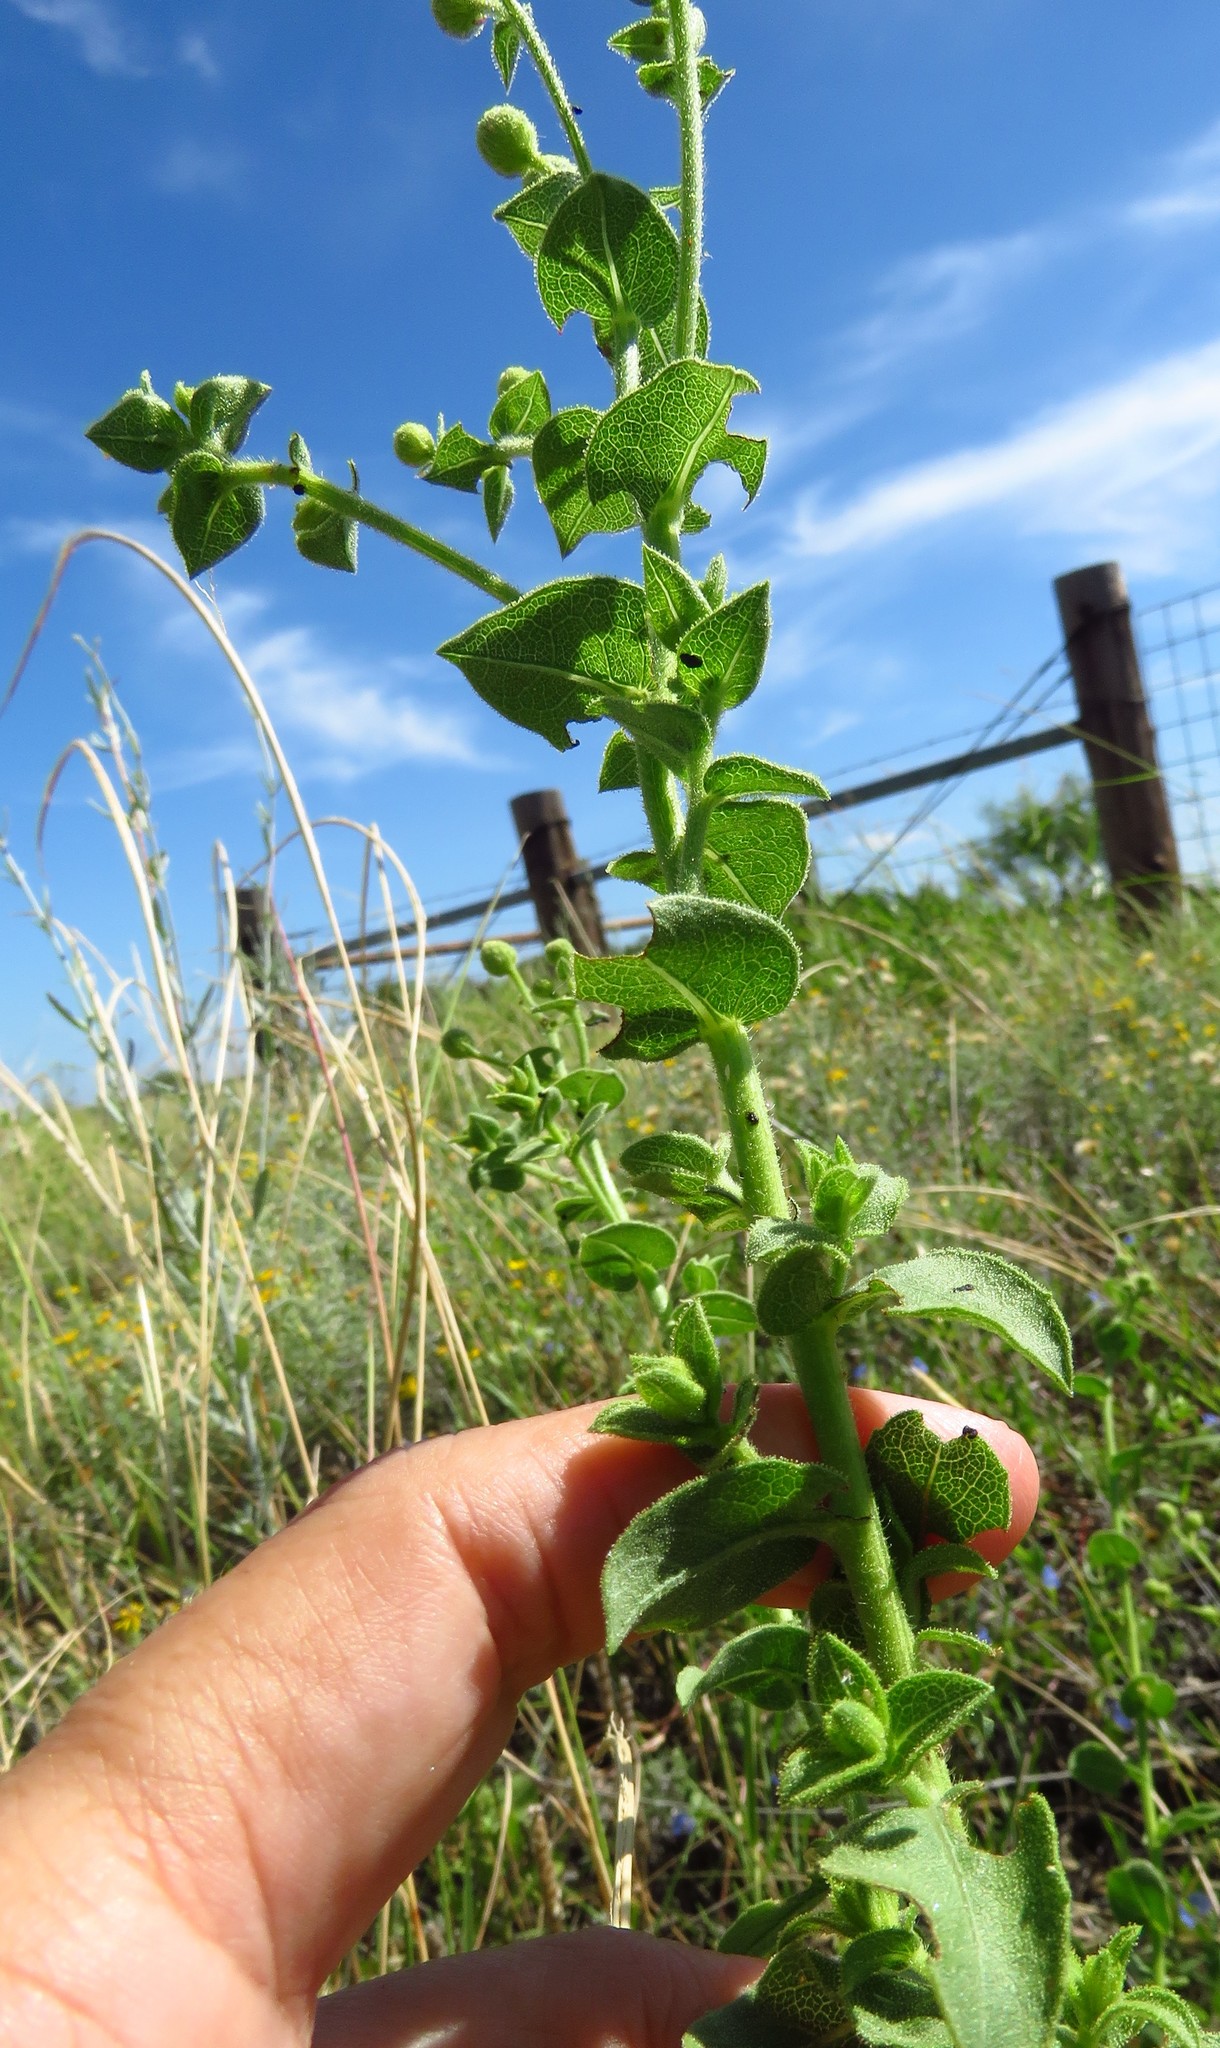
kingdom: Plantae
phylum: Tracheophyta
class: Magnoliopsida
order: Asterales
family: Asteraceae
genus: Heterotheca
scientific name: Heterotheca subaxillaris
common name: Camphorweed
